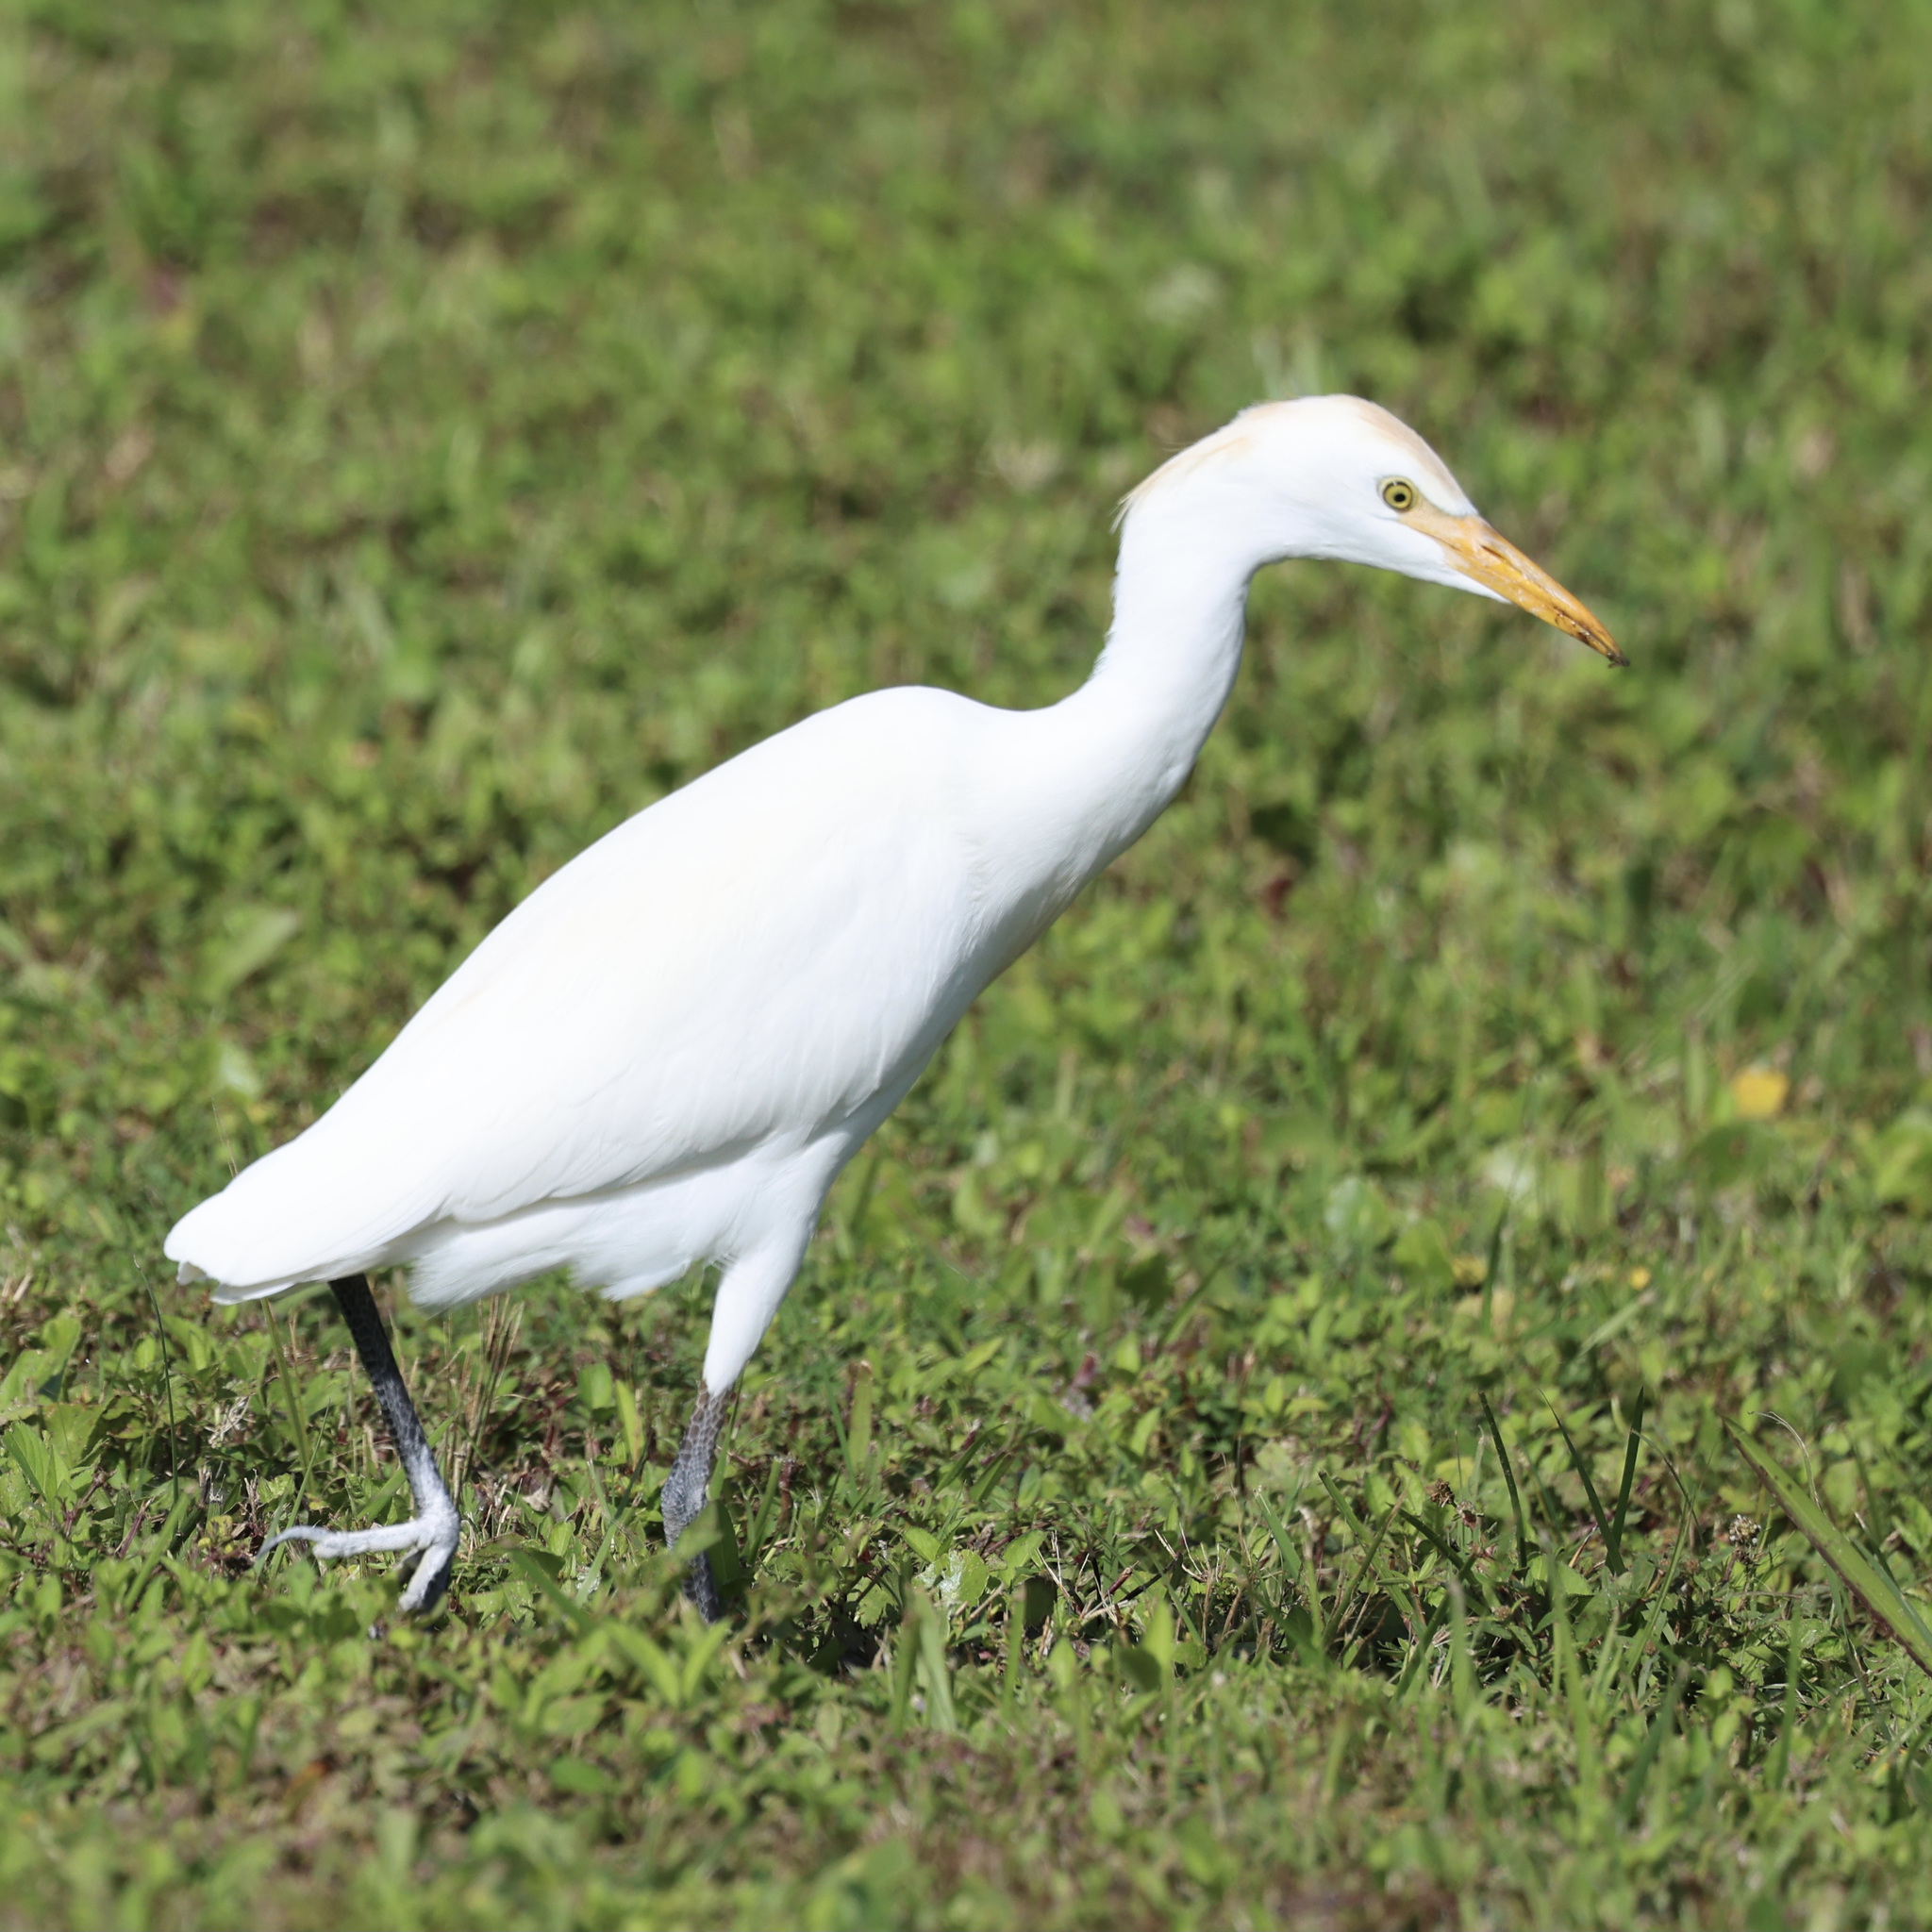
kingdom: Animalia
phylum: Chordata
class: Aves
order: Pelecaniformes
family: Ardeidae
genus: Bubulcus
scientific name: Bubulcus ibis
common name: Cattle egret
